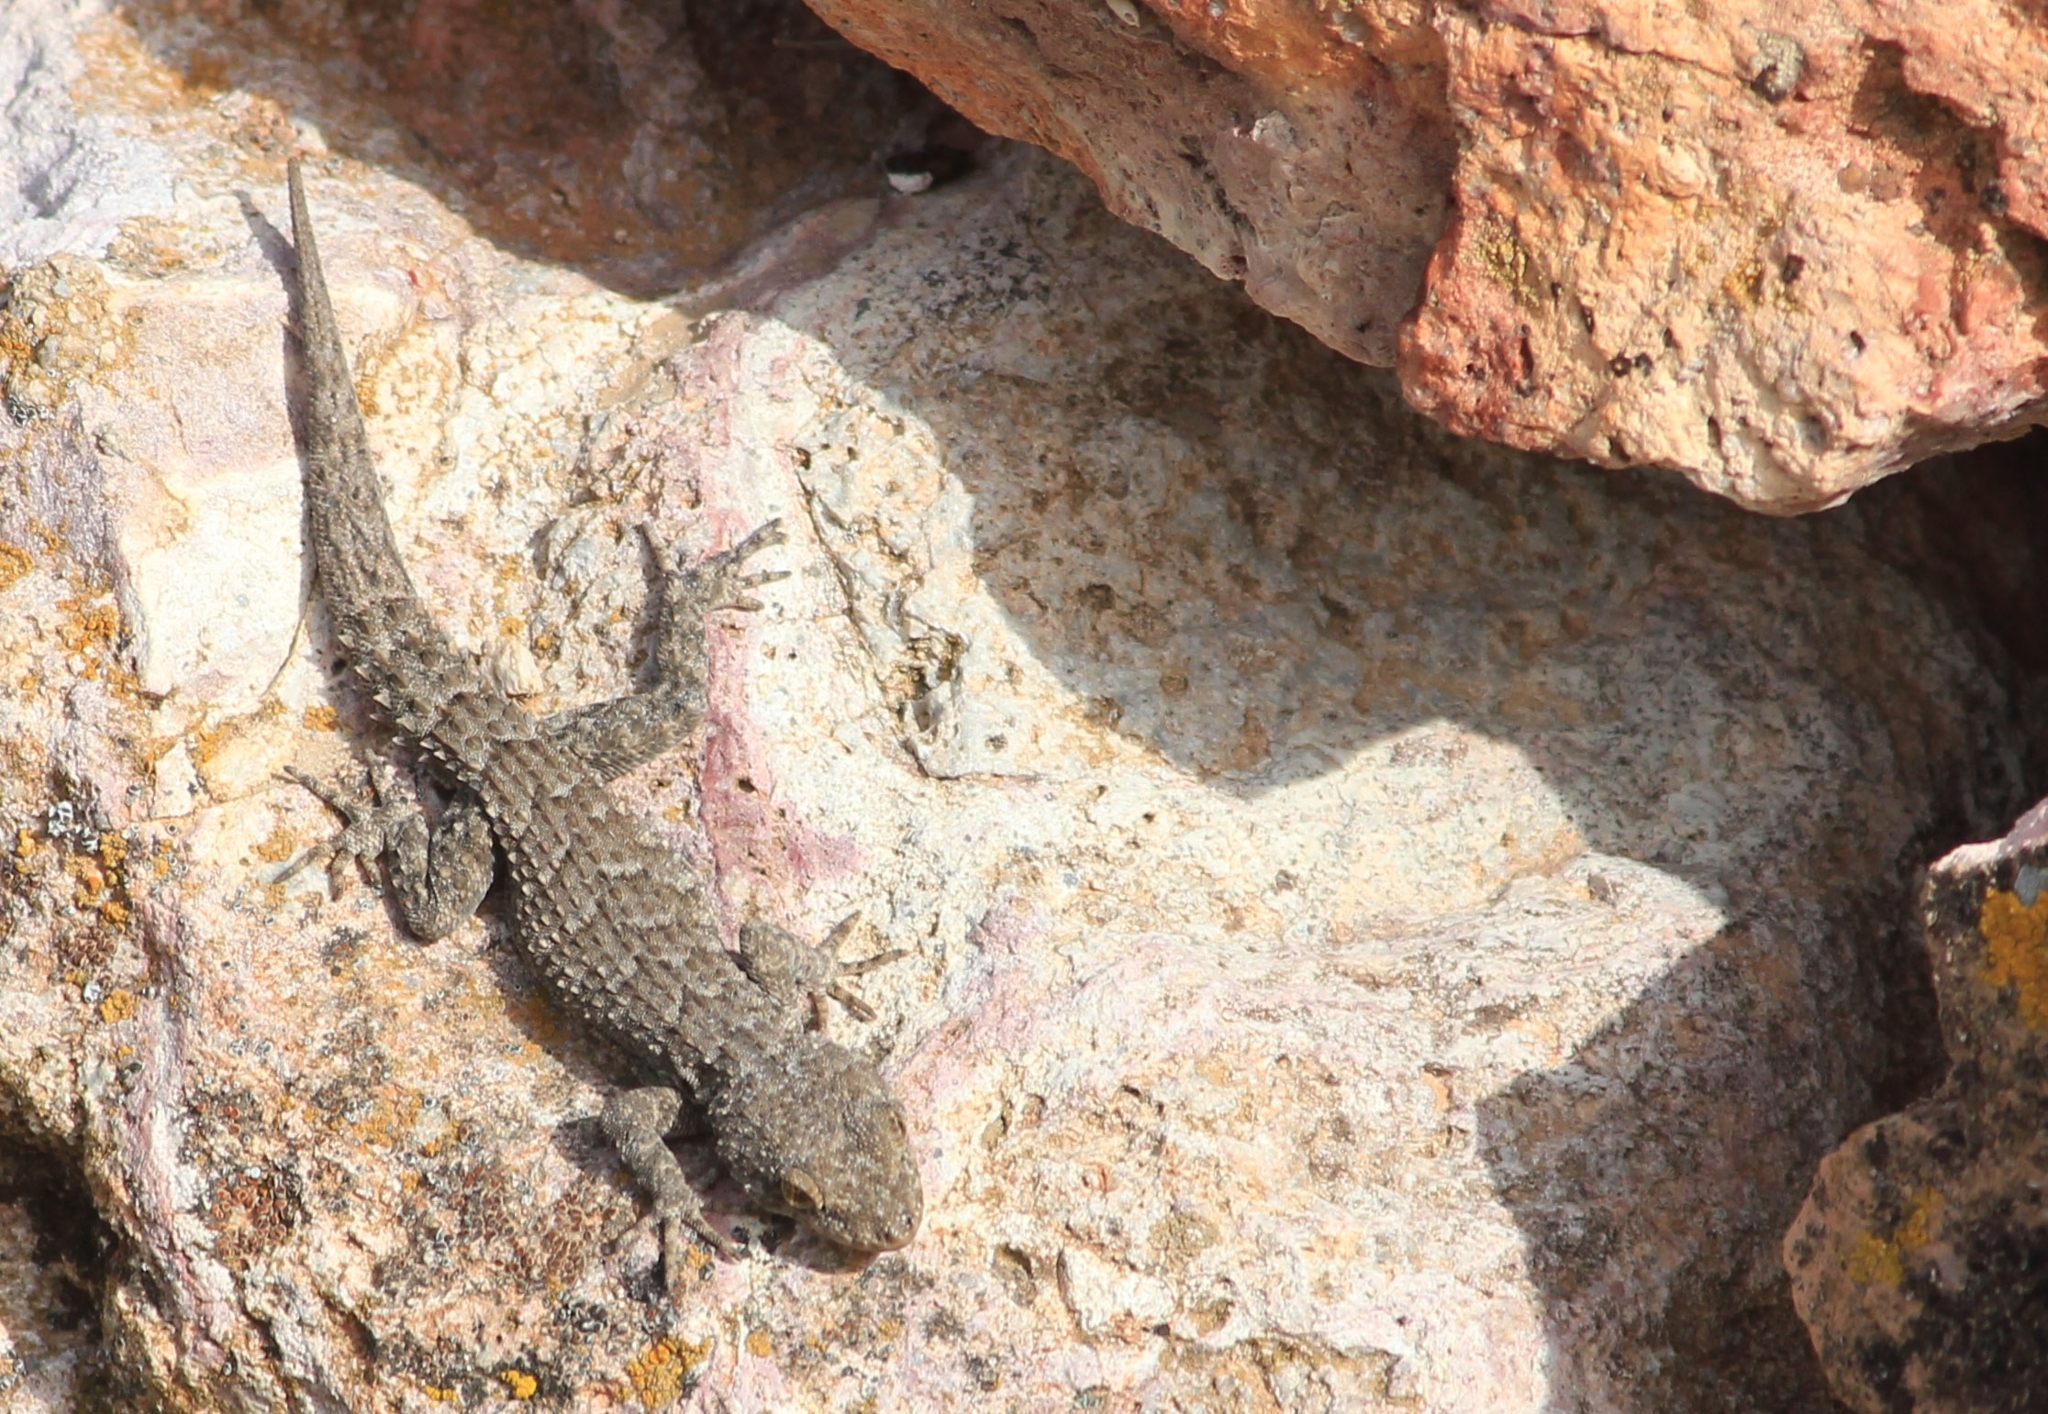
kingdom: Animalia
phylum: Chordata
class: Squamata
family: Gekkonidae
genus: Mediodactylus
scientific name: Mediodactylus kotschyi
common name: Kotschy's gecko
